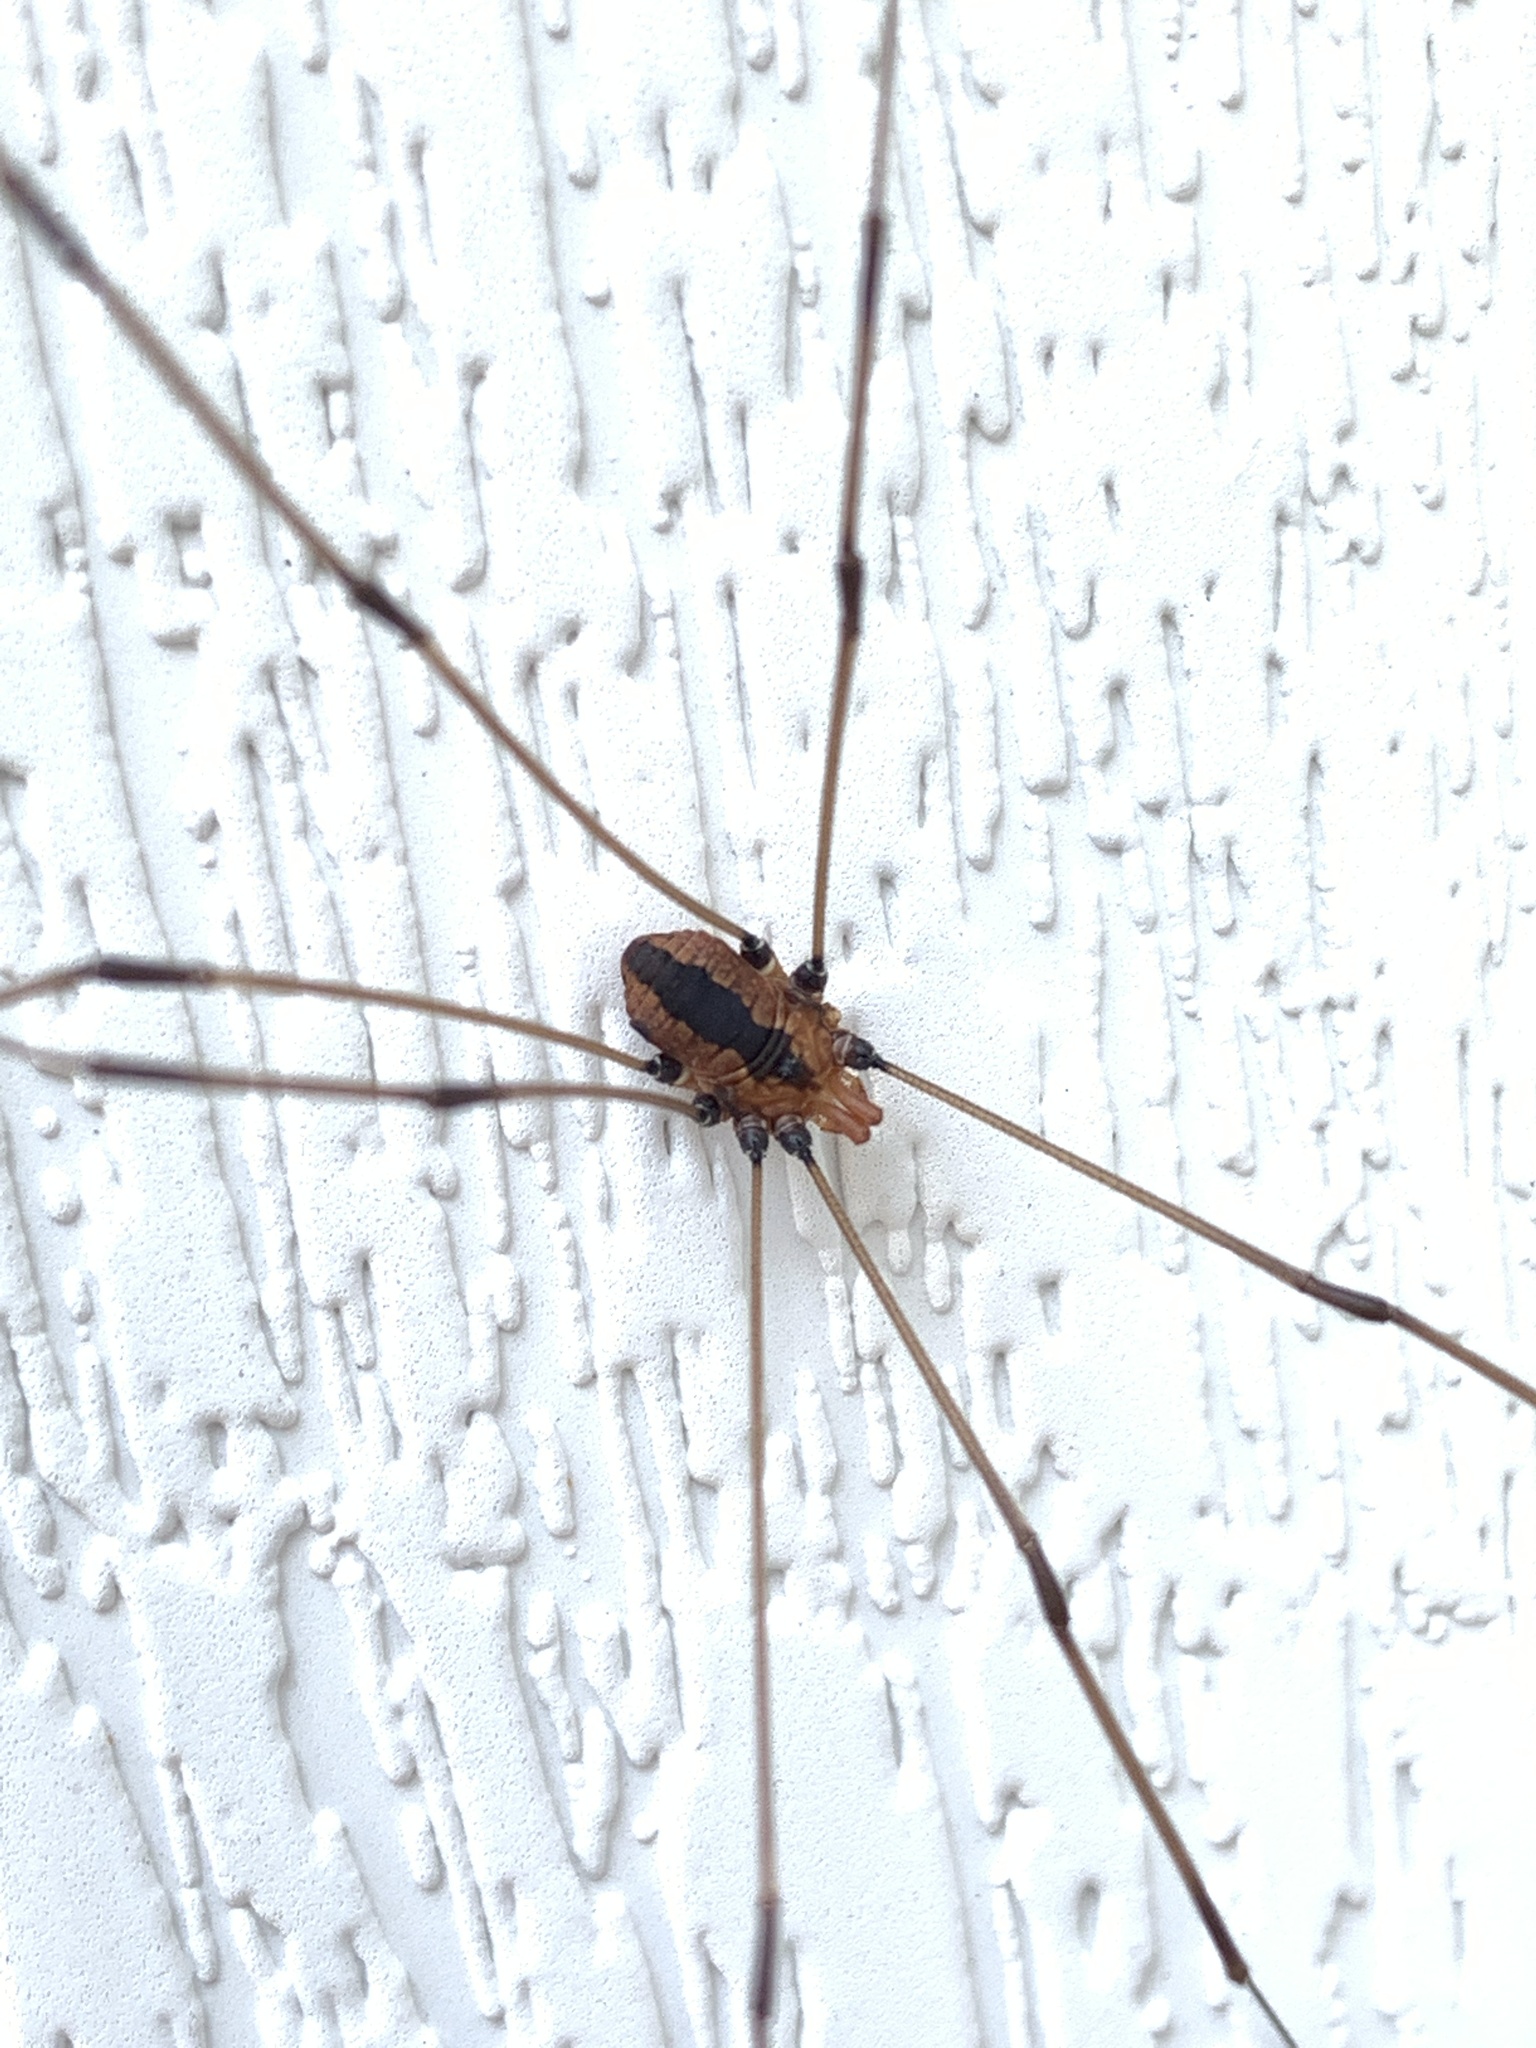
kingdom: Animalia
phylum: Arthropoda
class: Arachnida
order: Opiliones
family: Sclerosomatidae
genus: Leiobunum
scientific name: Leiobunum vittatum
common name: Eastern harvestman
